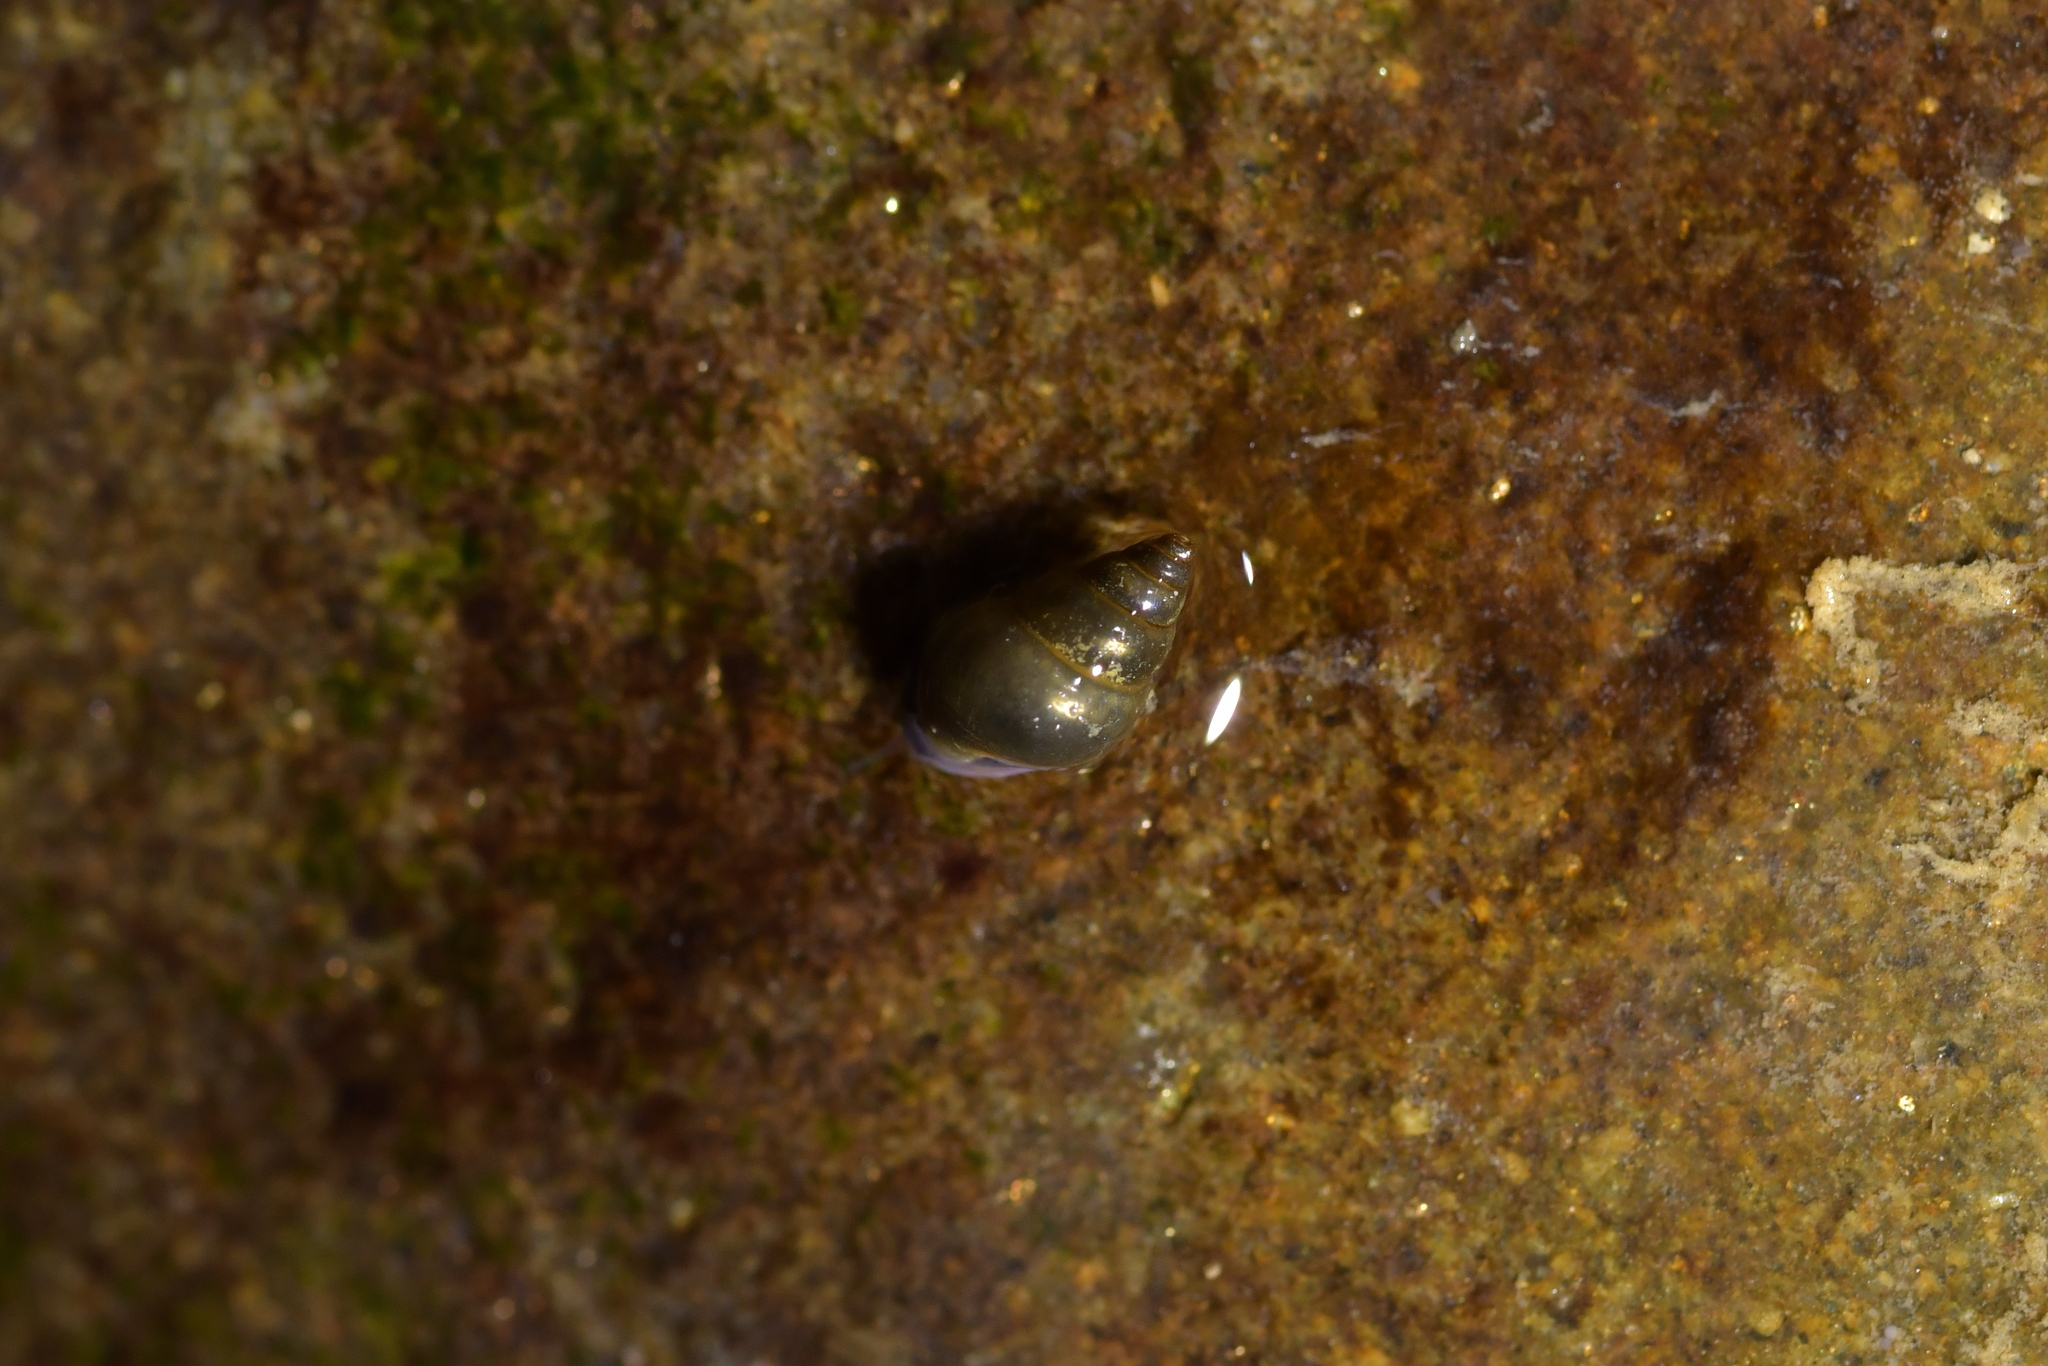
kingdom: Animalia
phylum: Mollusca
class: Gastropoda
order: Littorinimorpha
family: Tateidae
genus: Potamopyrgus
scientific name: Potamopyrgus antipodarum
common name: Jenkins' spire snail
